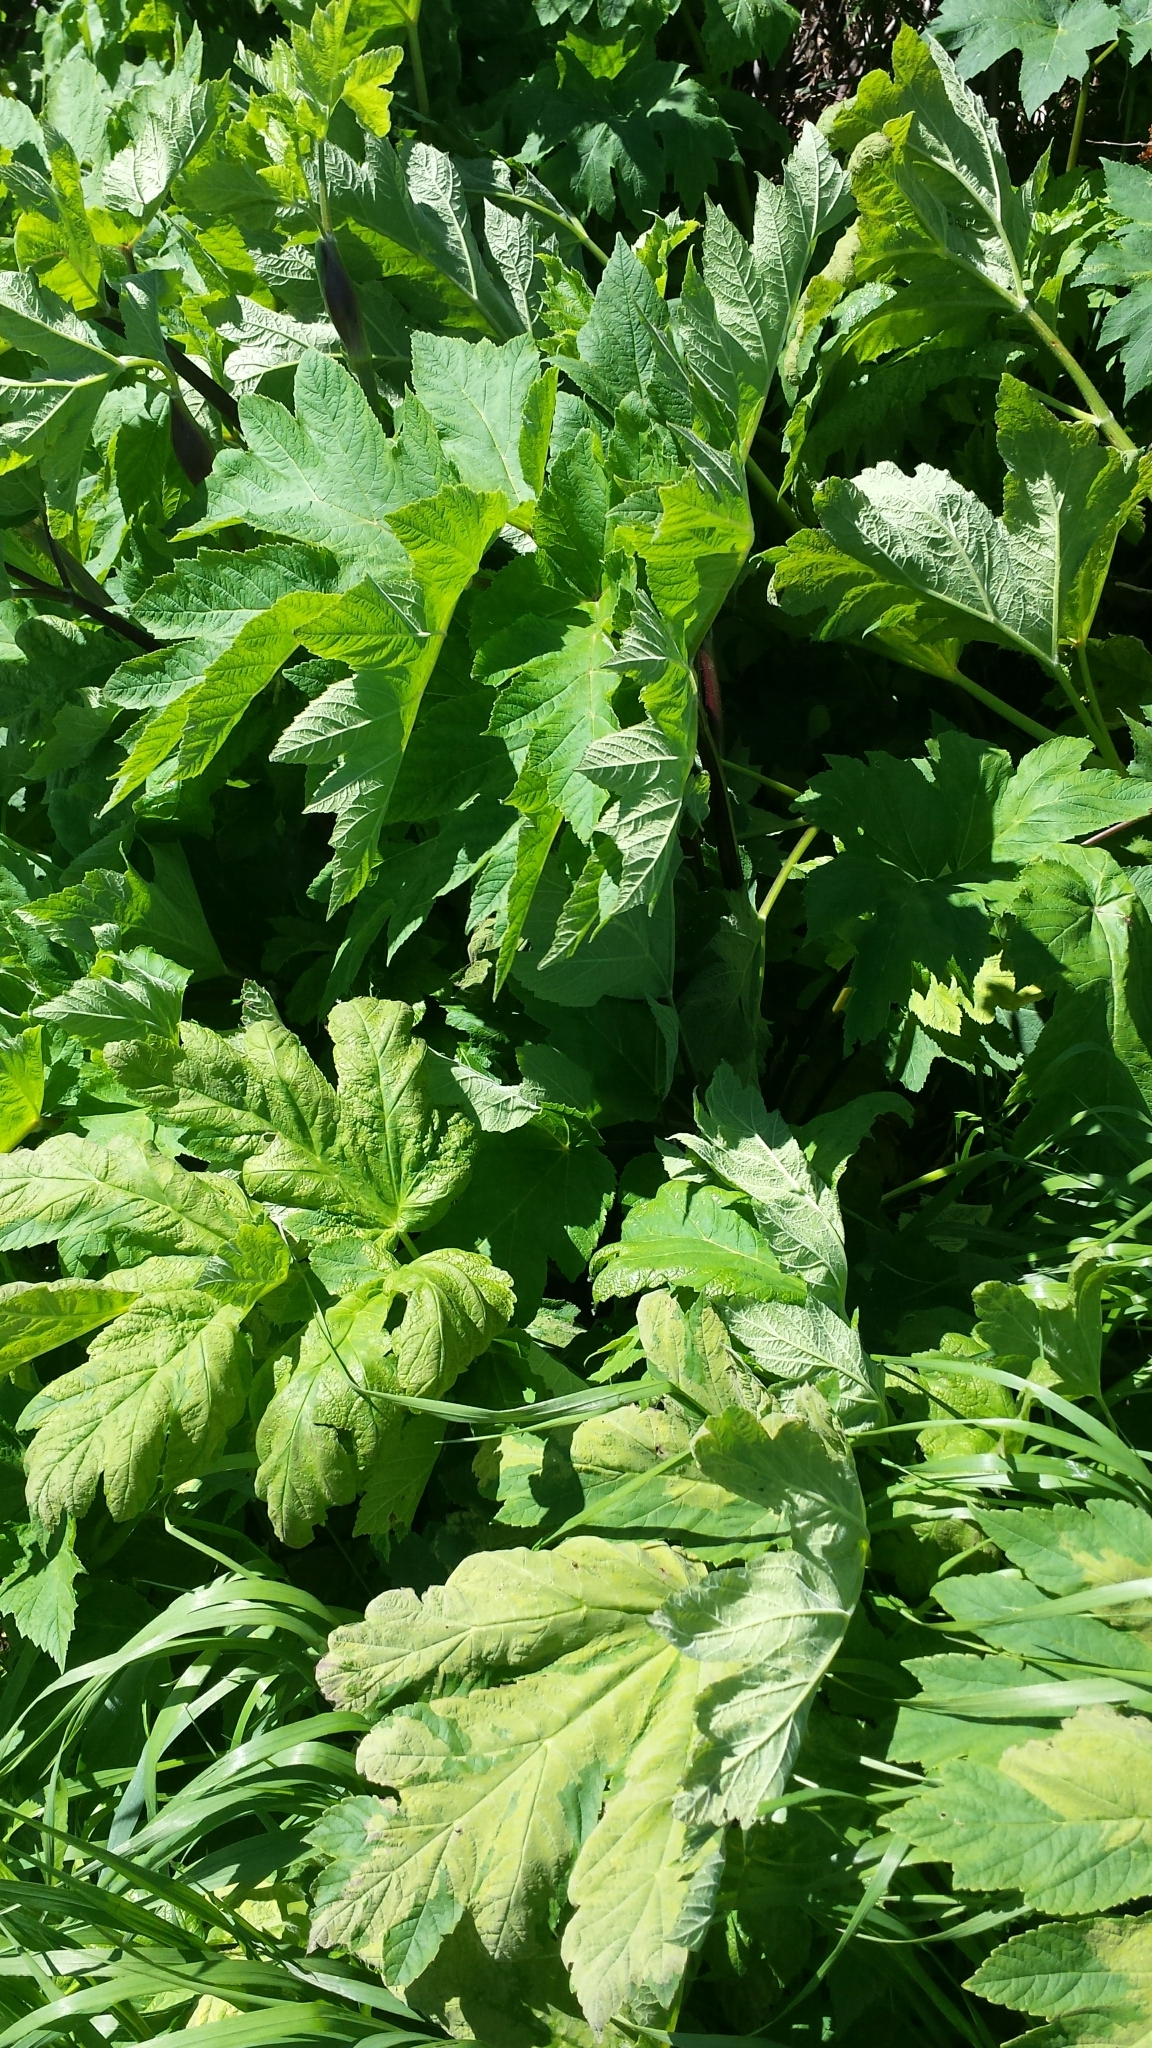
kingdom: Plantae
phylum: Tracheophyta
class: Magnoliopsida
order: Apiales
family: Apiaceae
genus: Heracleum
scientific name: Heracleum maximum
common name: American cow parsnip
